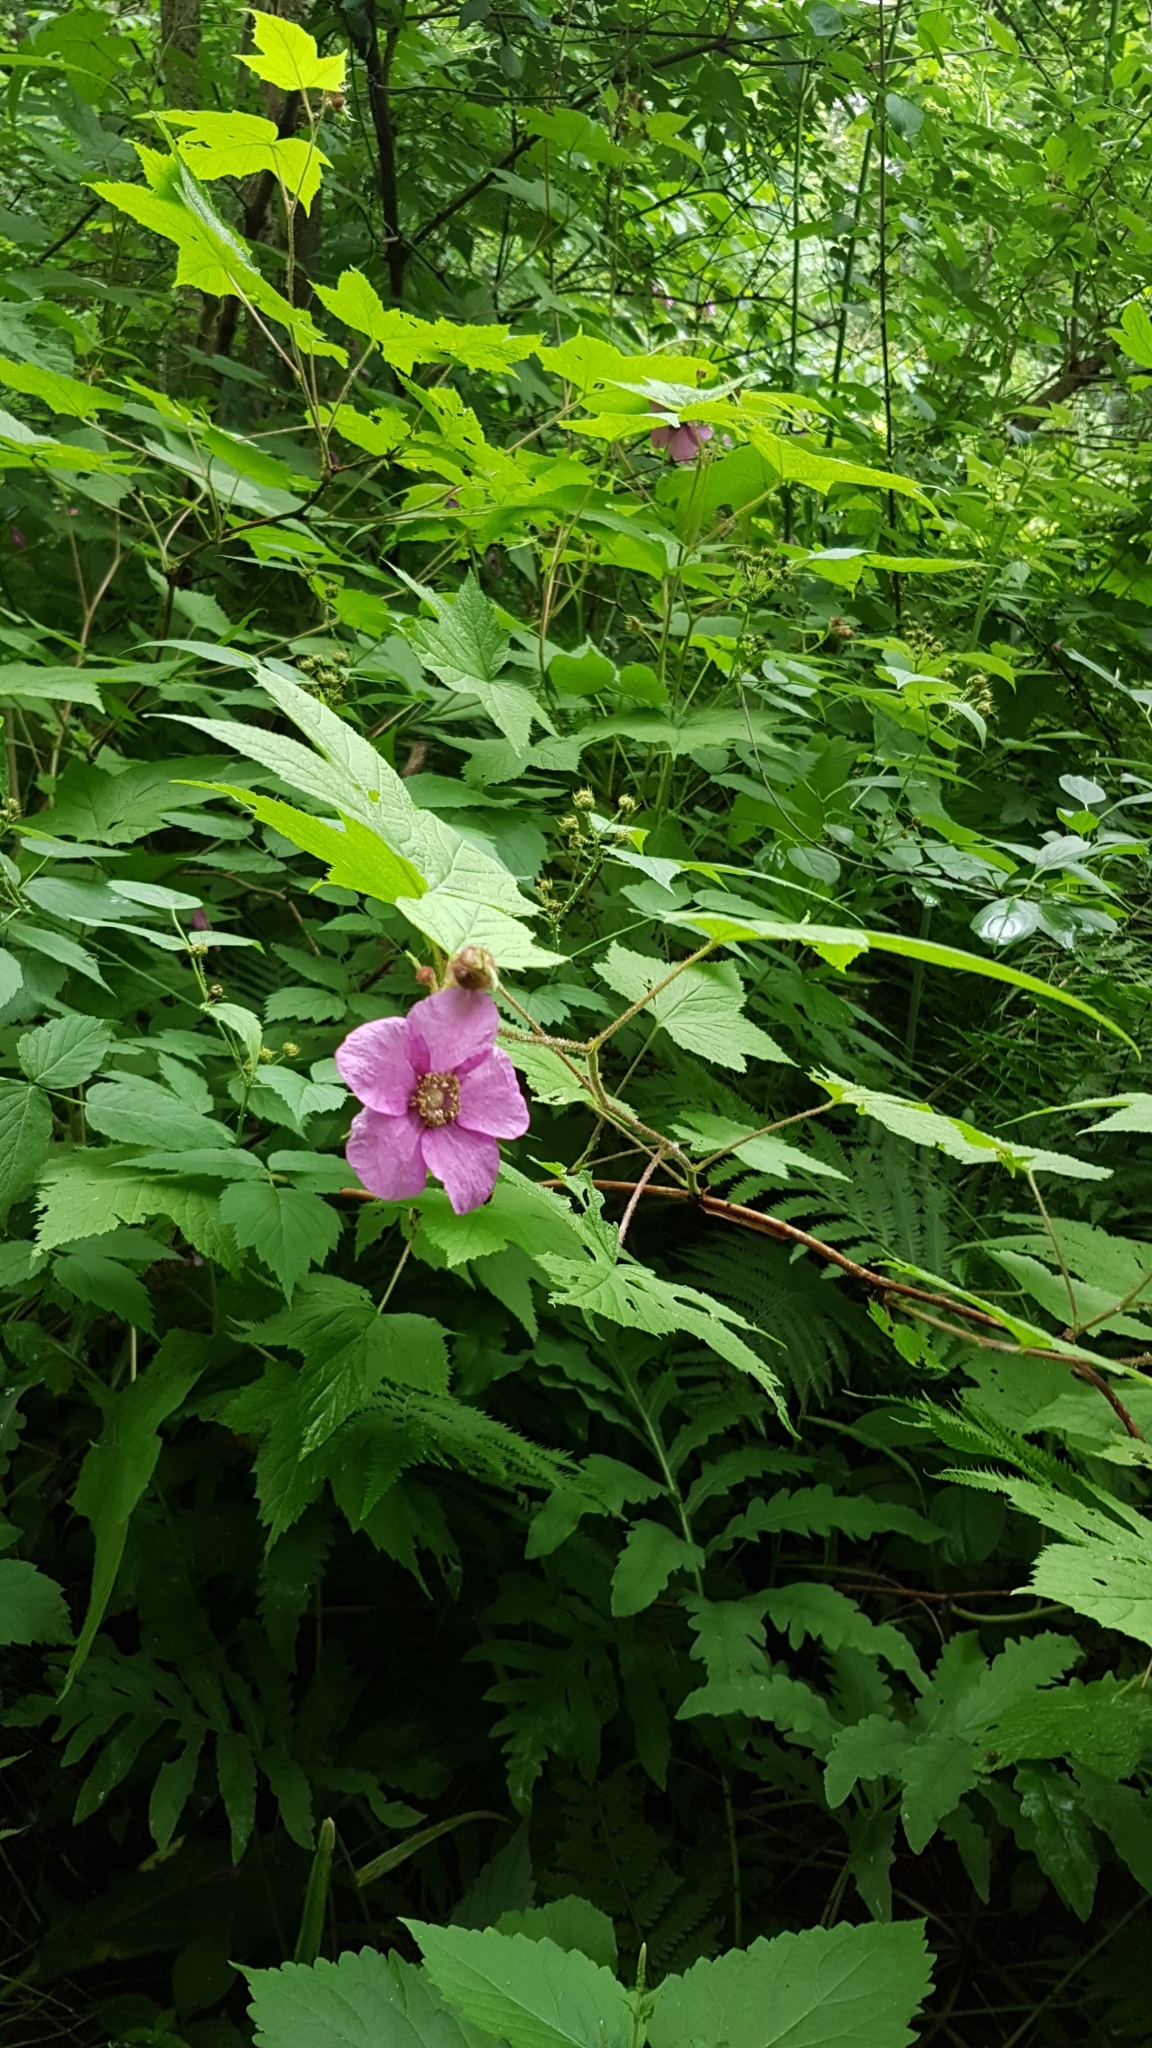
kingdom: Plantae
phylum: Tracheophyta
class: Magnoliopsida
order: Rosales
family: Rosaceae
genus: Rubus
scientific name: Rubus odoratus
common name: Purple-flowered raspberry
